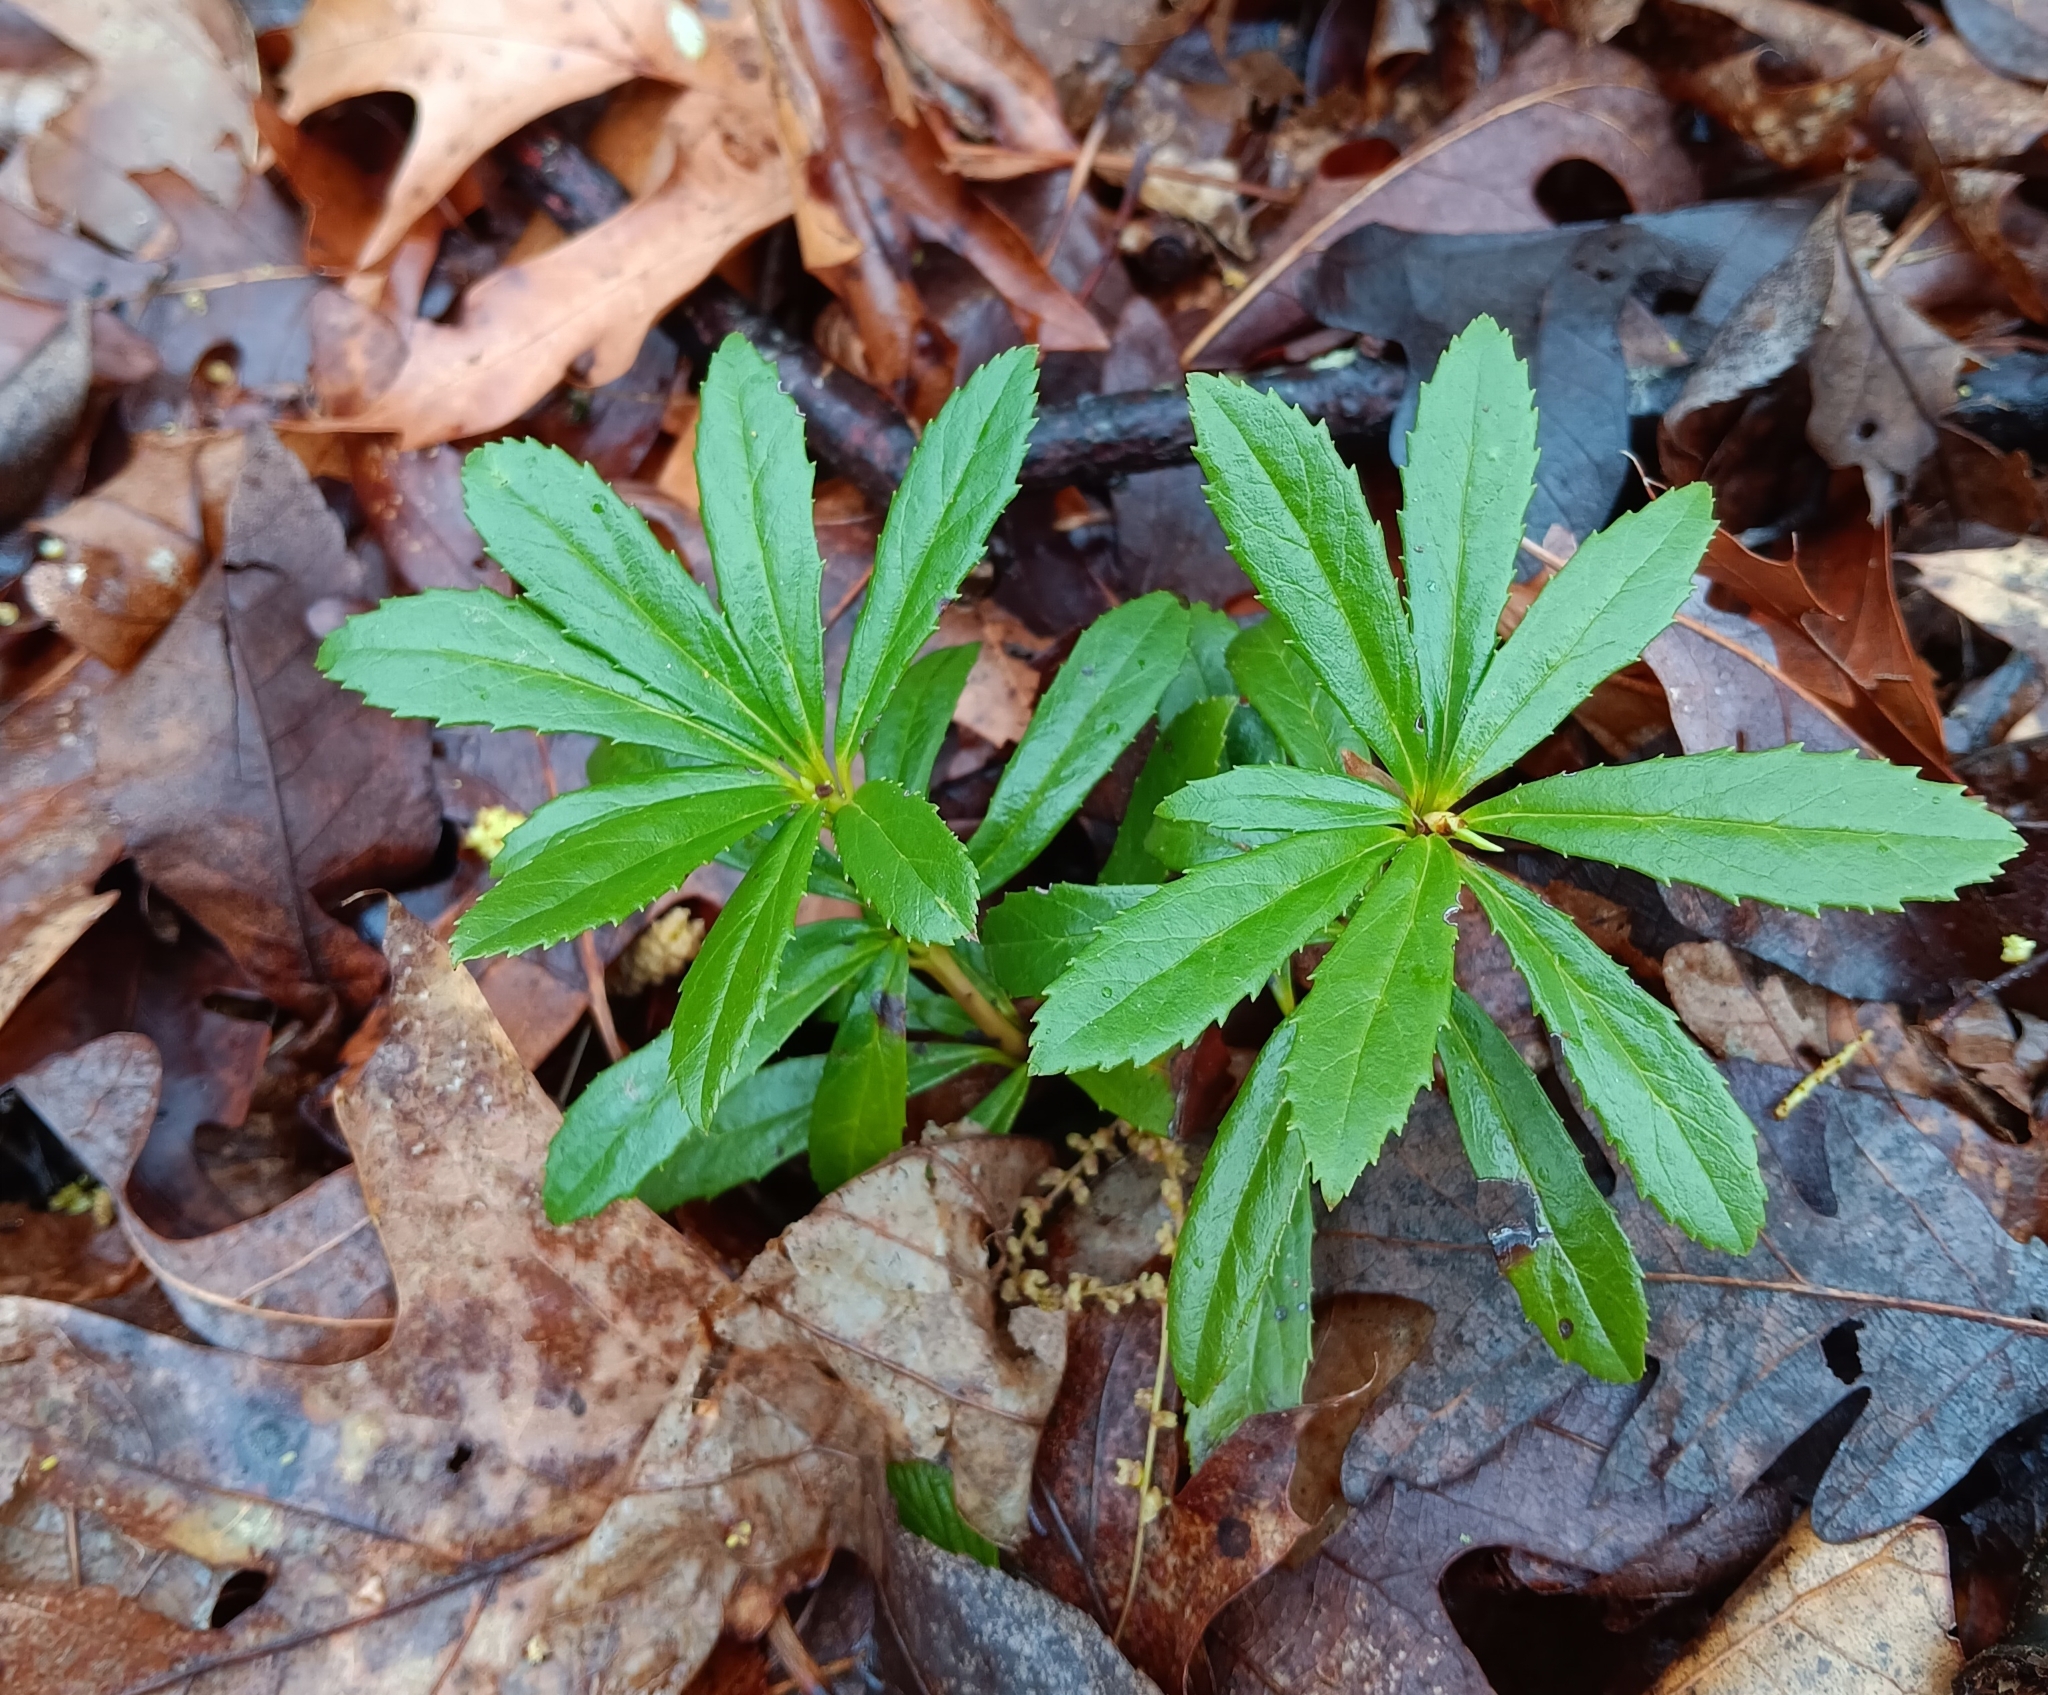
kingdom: Plantae
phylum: Tracheophyta
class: Magnoliopsida
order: Ericales
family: Ericaceae
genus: Chimaphila
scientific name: Chimaphila umbellata
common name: Pipsissewa
